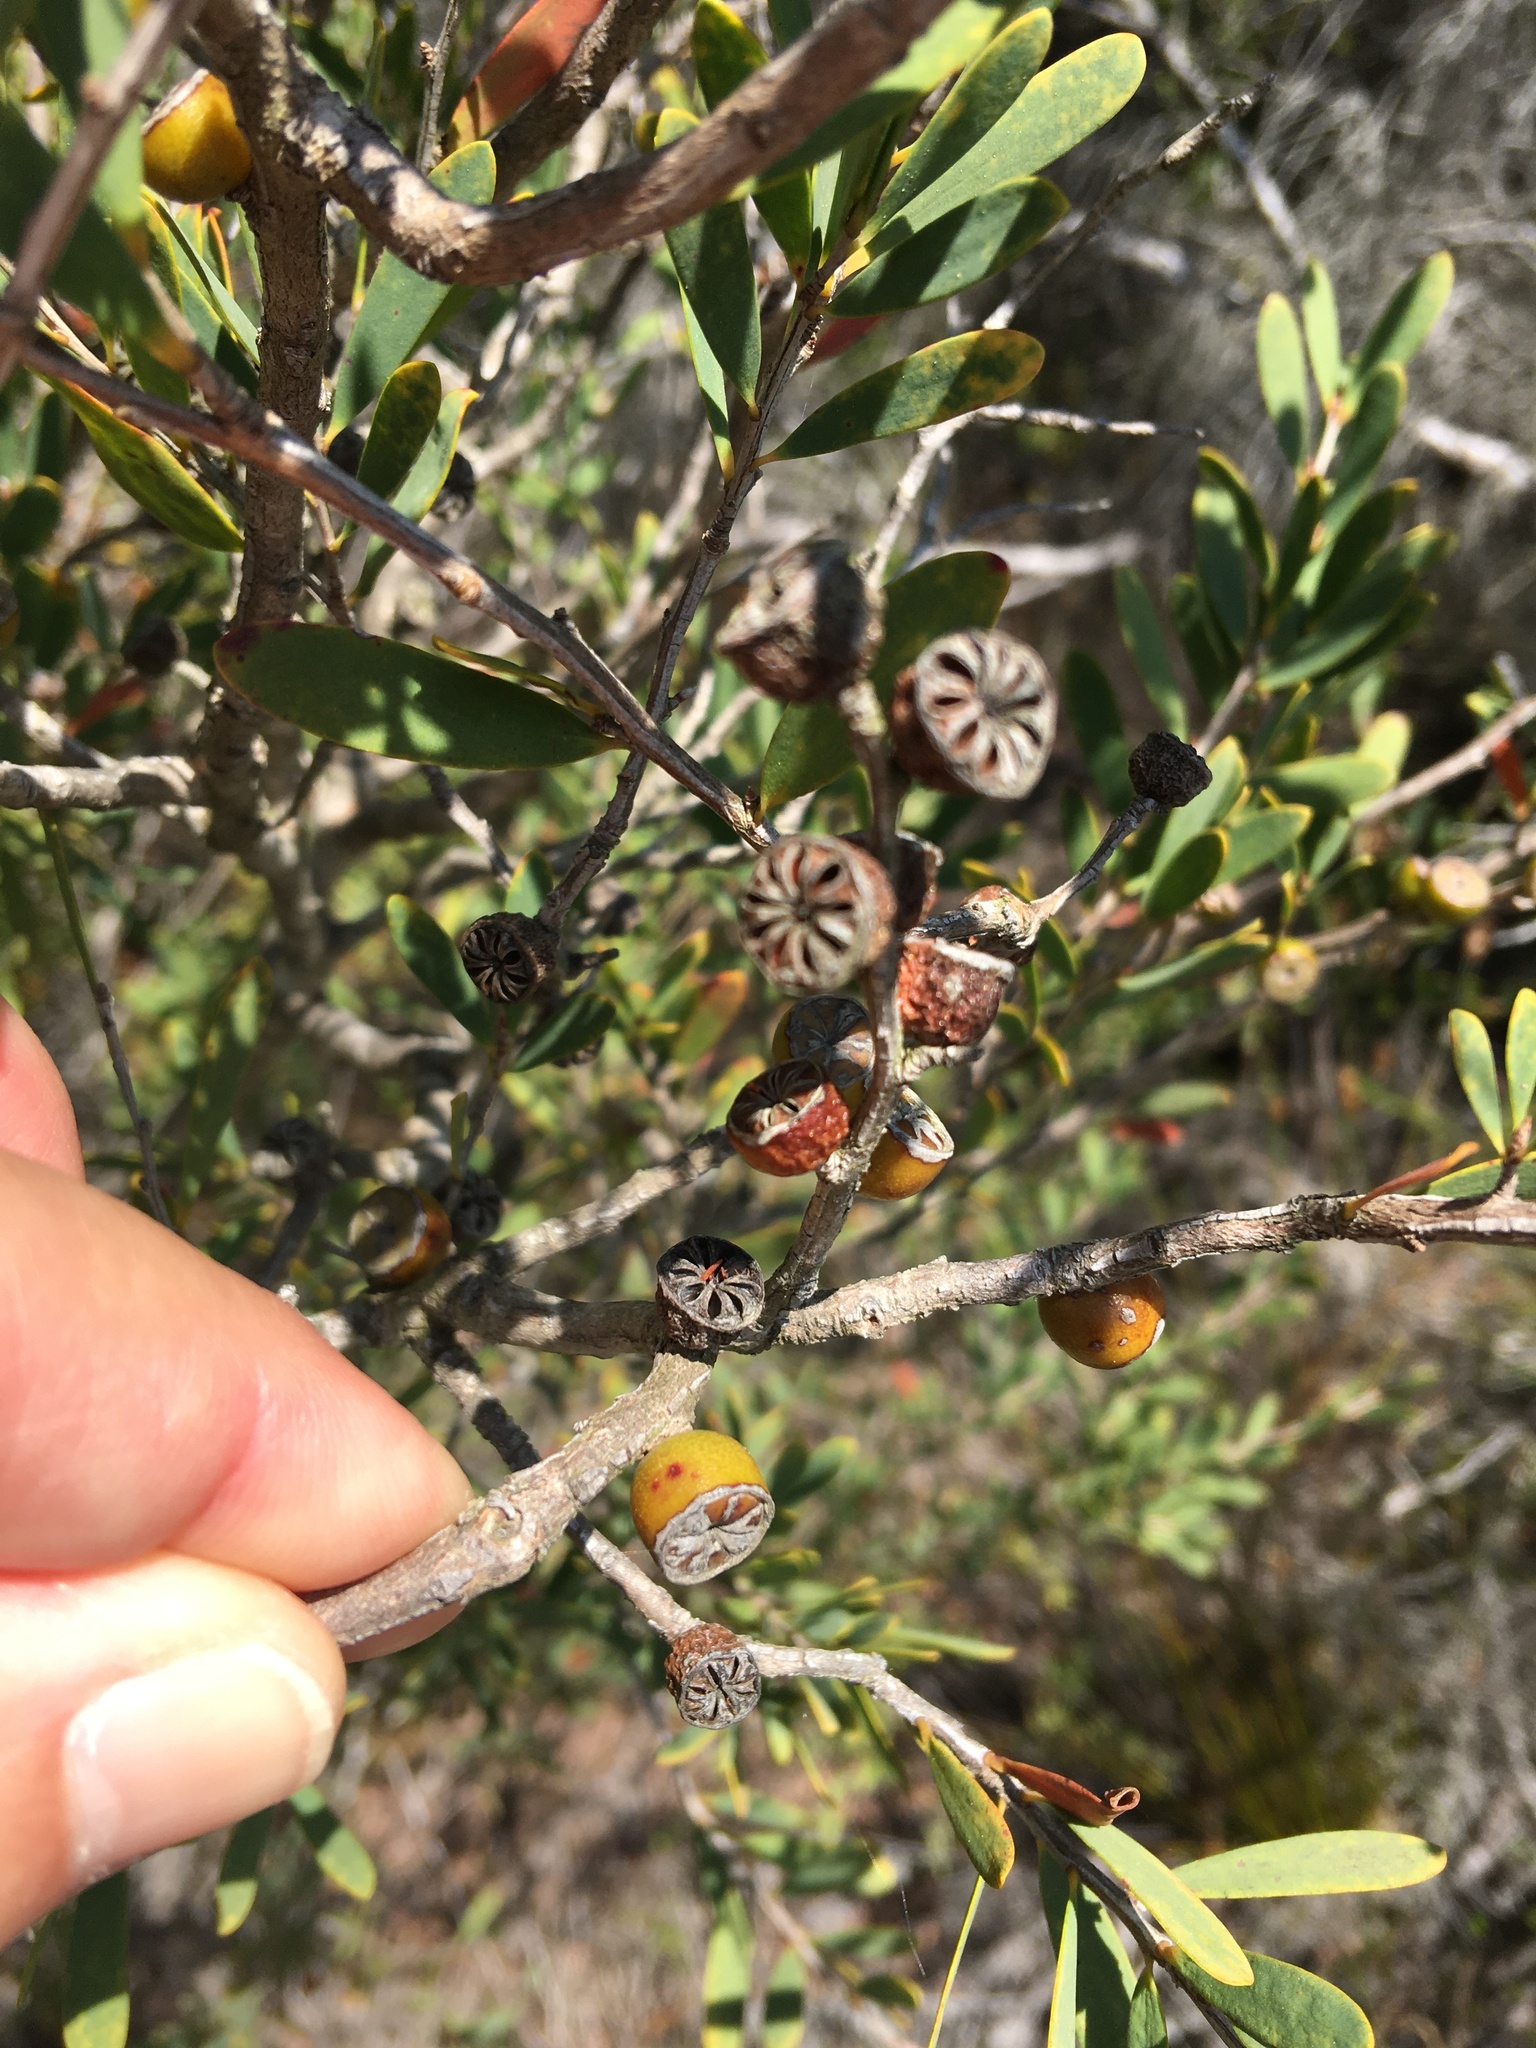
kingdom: Plantae
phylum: Tracheophyta
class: Magnoliopsida
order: Myrtales
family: Myrtaceae
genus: Leptospermum
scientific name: Leptospermum laevigatum
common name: Australian teatree
